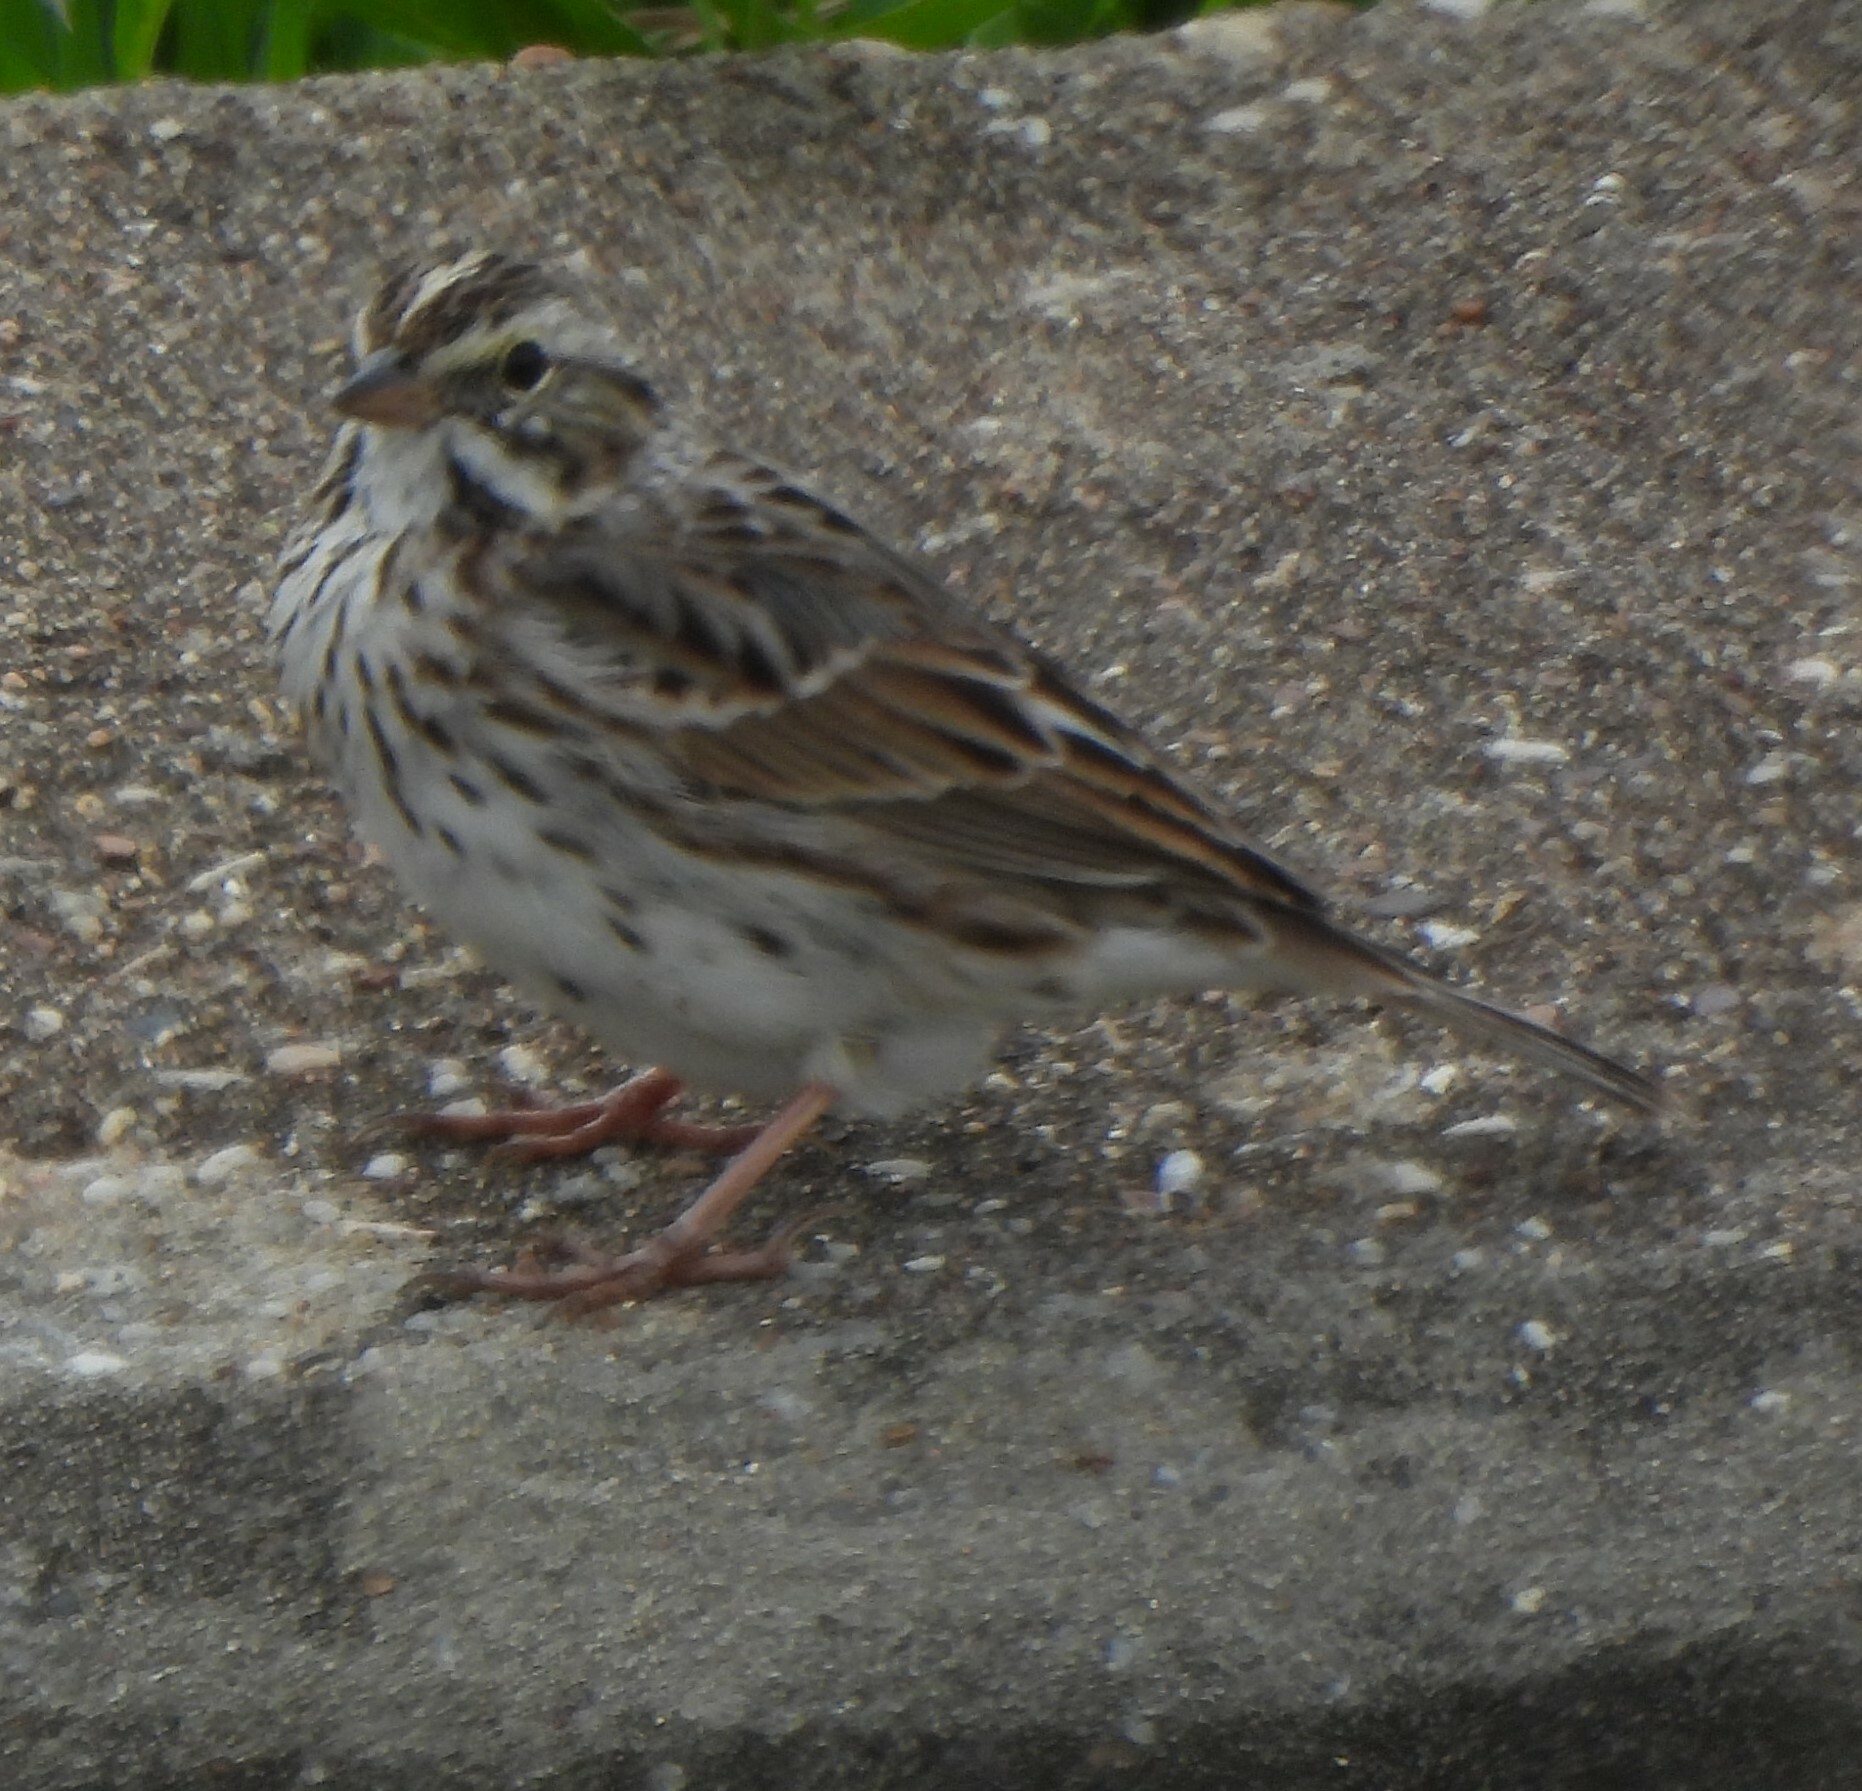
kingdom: Animalia
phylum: Chordata
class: Aves
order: Passeriformes
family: Passerellidae
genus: Passerculus
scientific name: Passerculus sandwichensis
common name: Savannah sparrow
